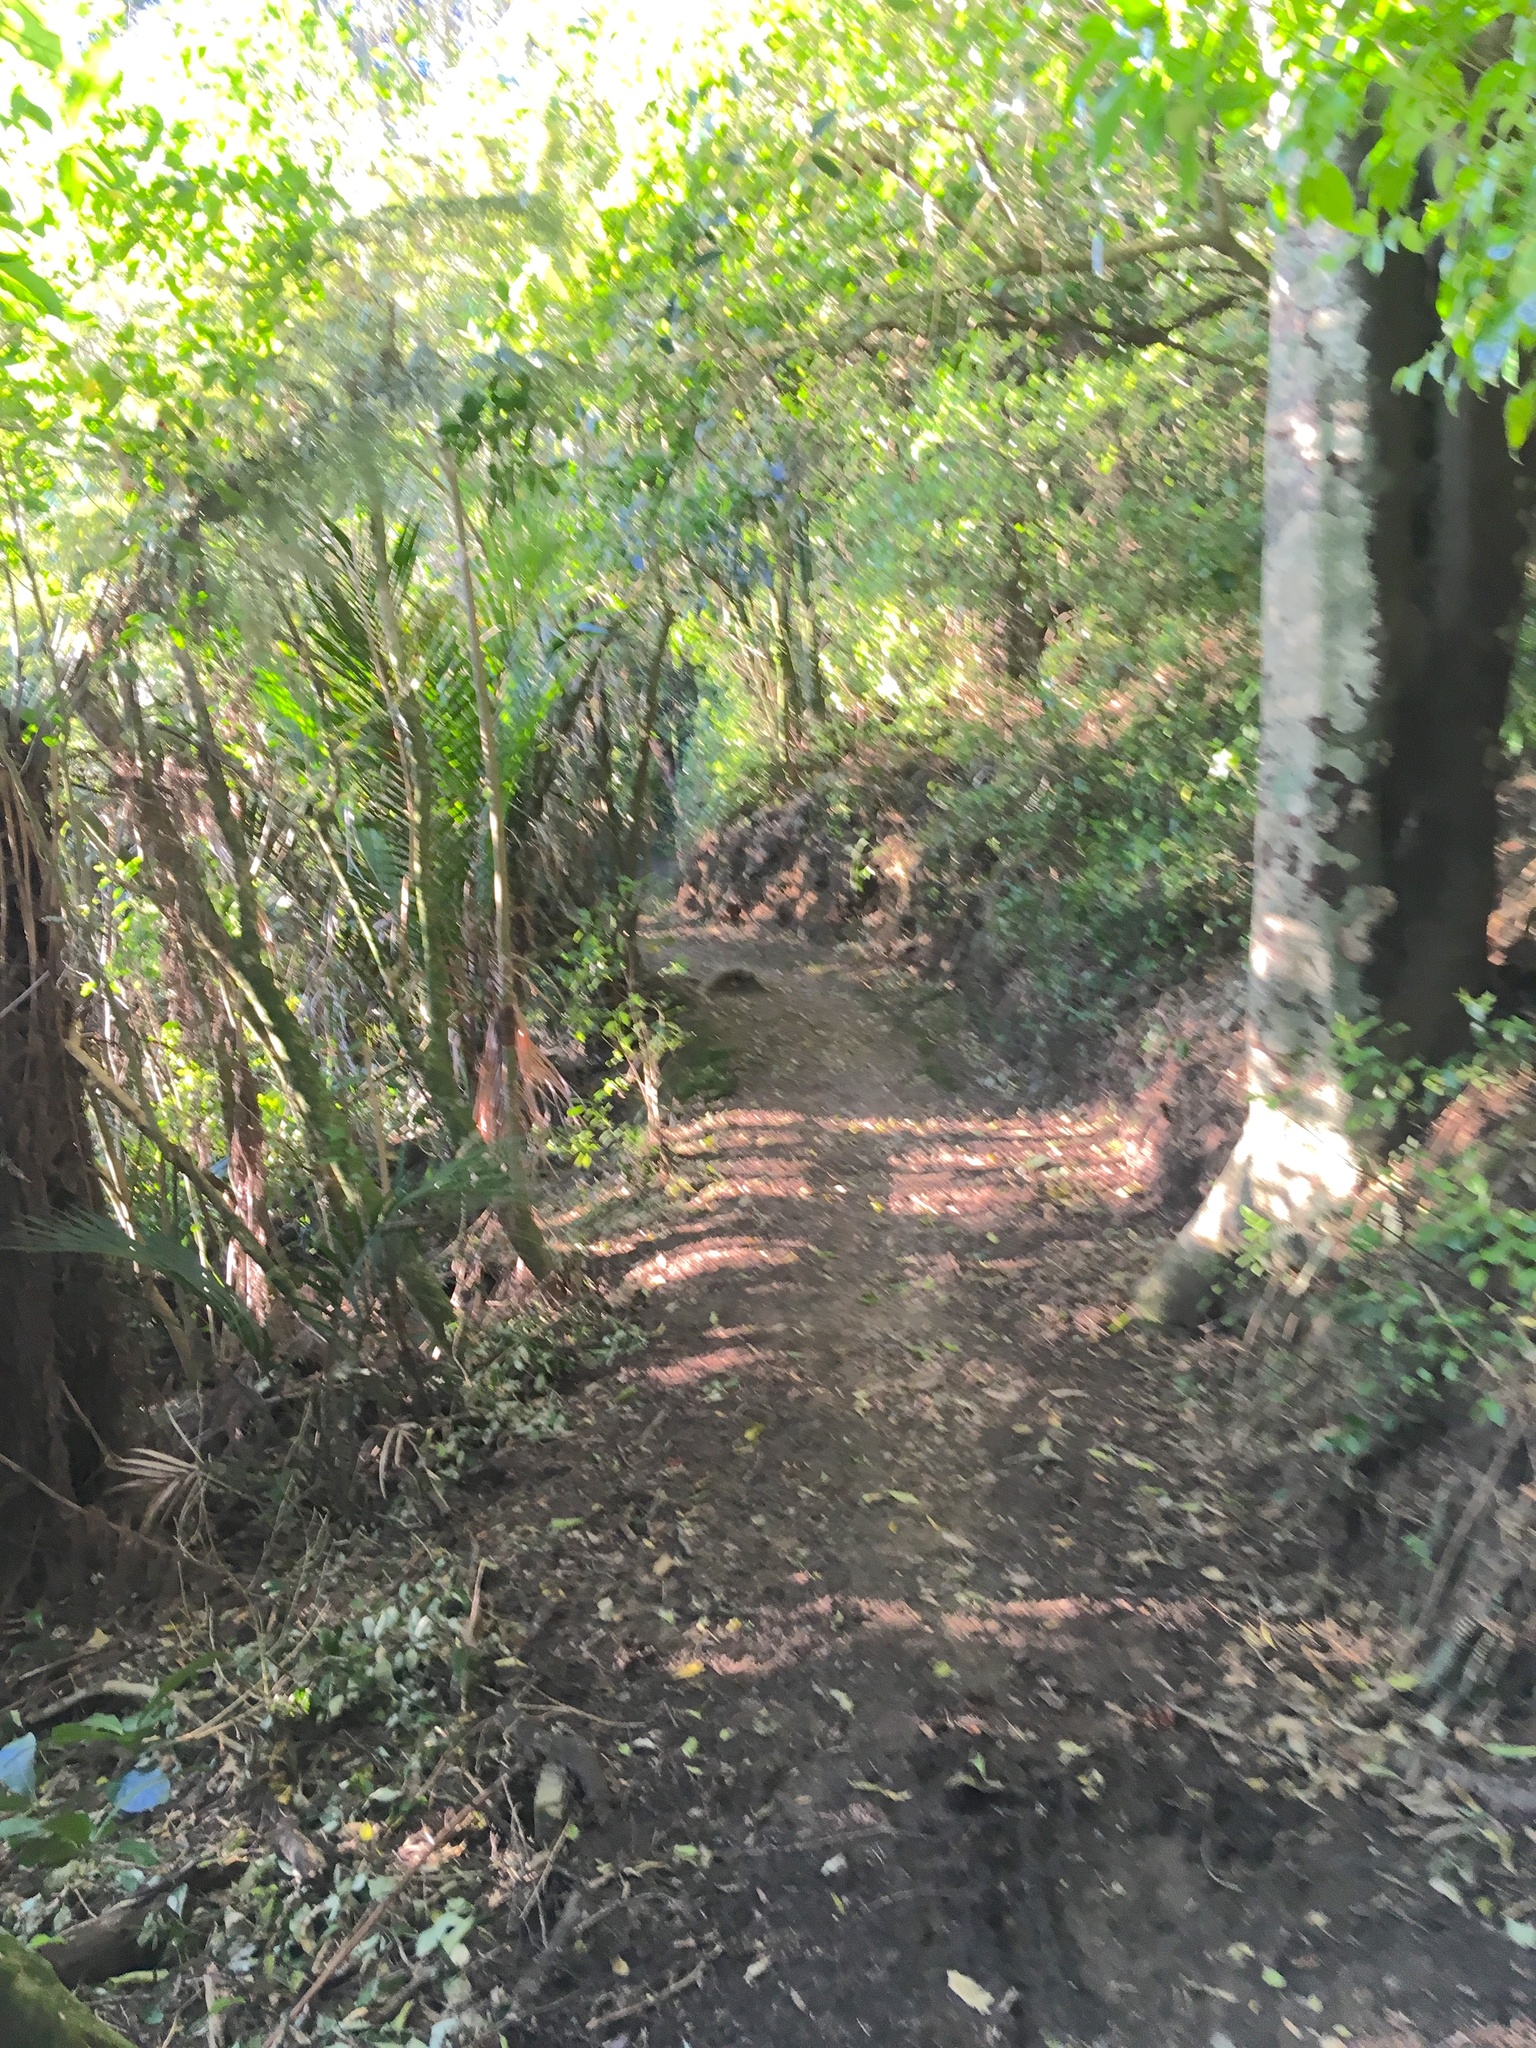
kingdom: Plantae
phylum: Tracheophyta
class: Liliopsida
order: Arecales
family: Arecaceae
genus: Rhopalostylis
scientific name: Rhopalostylis sapida
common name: Feather-duster palm
